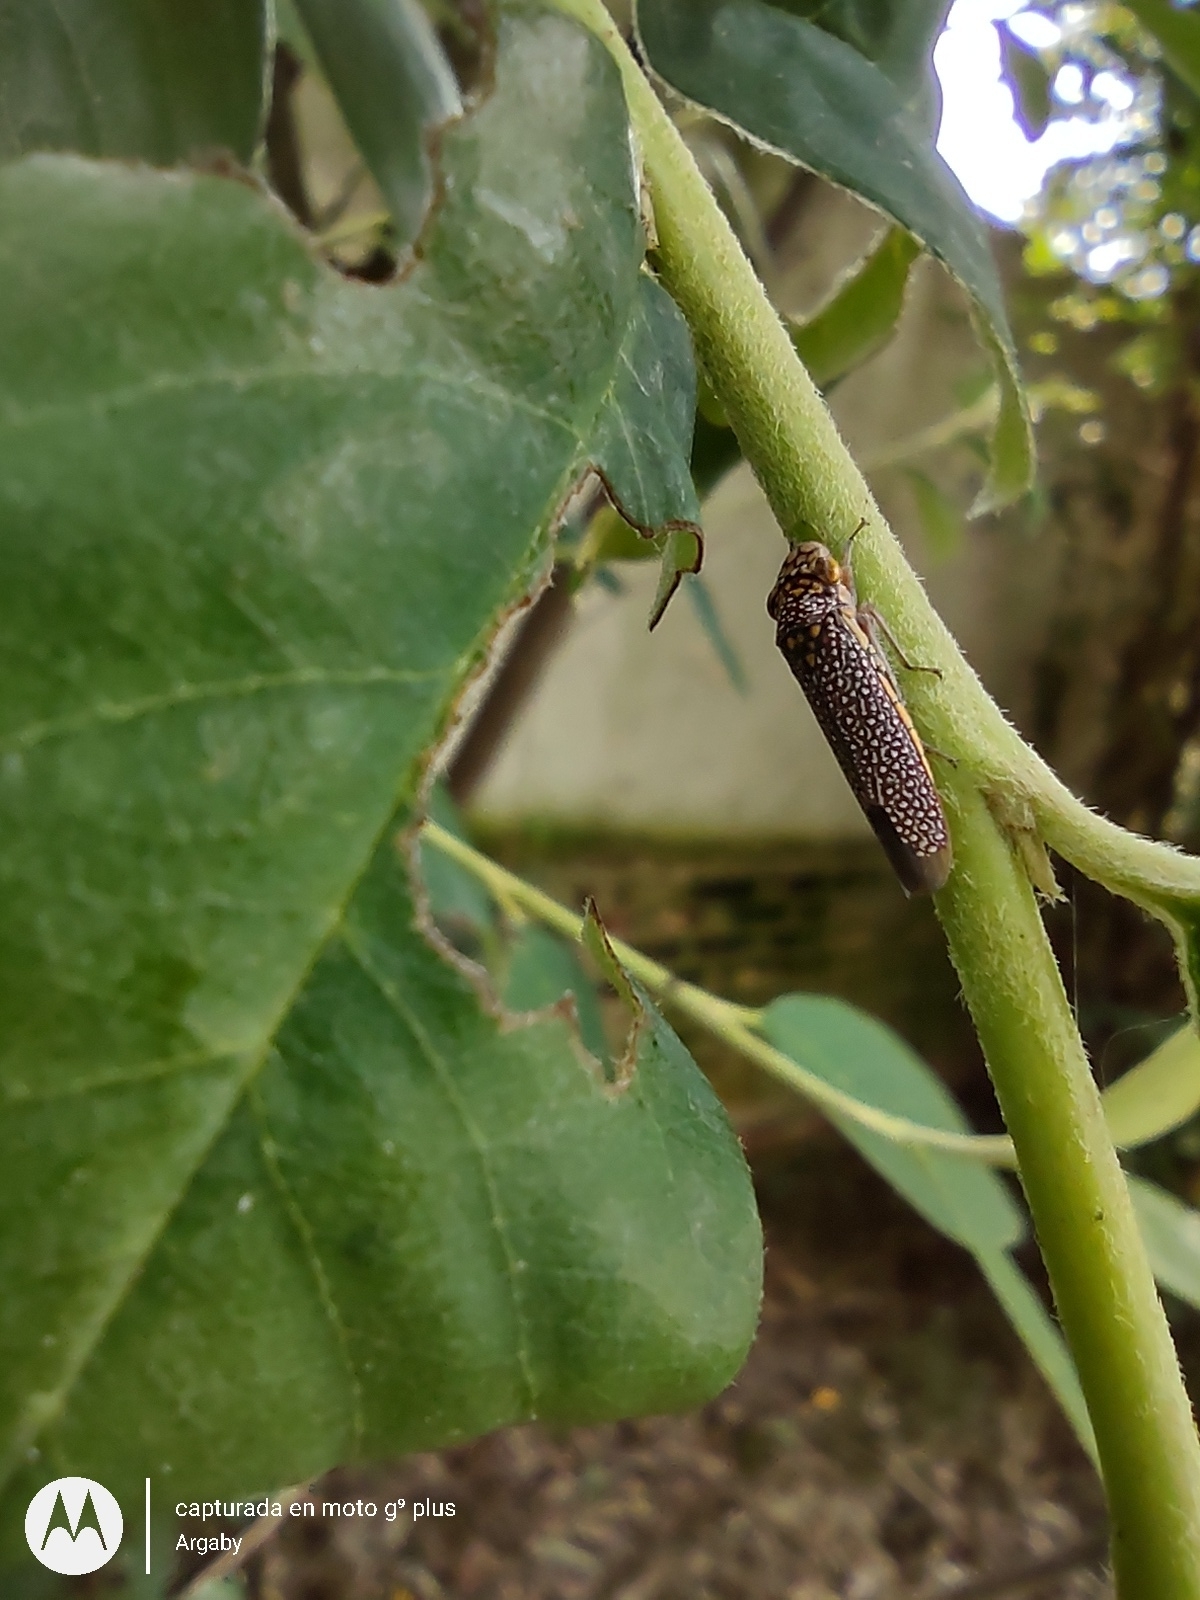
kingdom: Animalia
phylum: Arthropoda
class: Insecta
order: Hemiptera
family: Cicadellidae
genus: Molomea
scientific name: Molomea lineiceps
